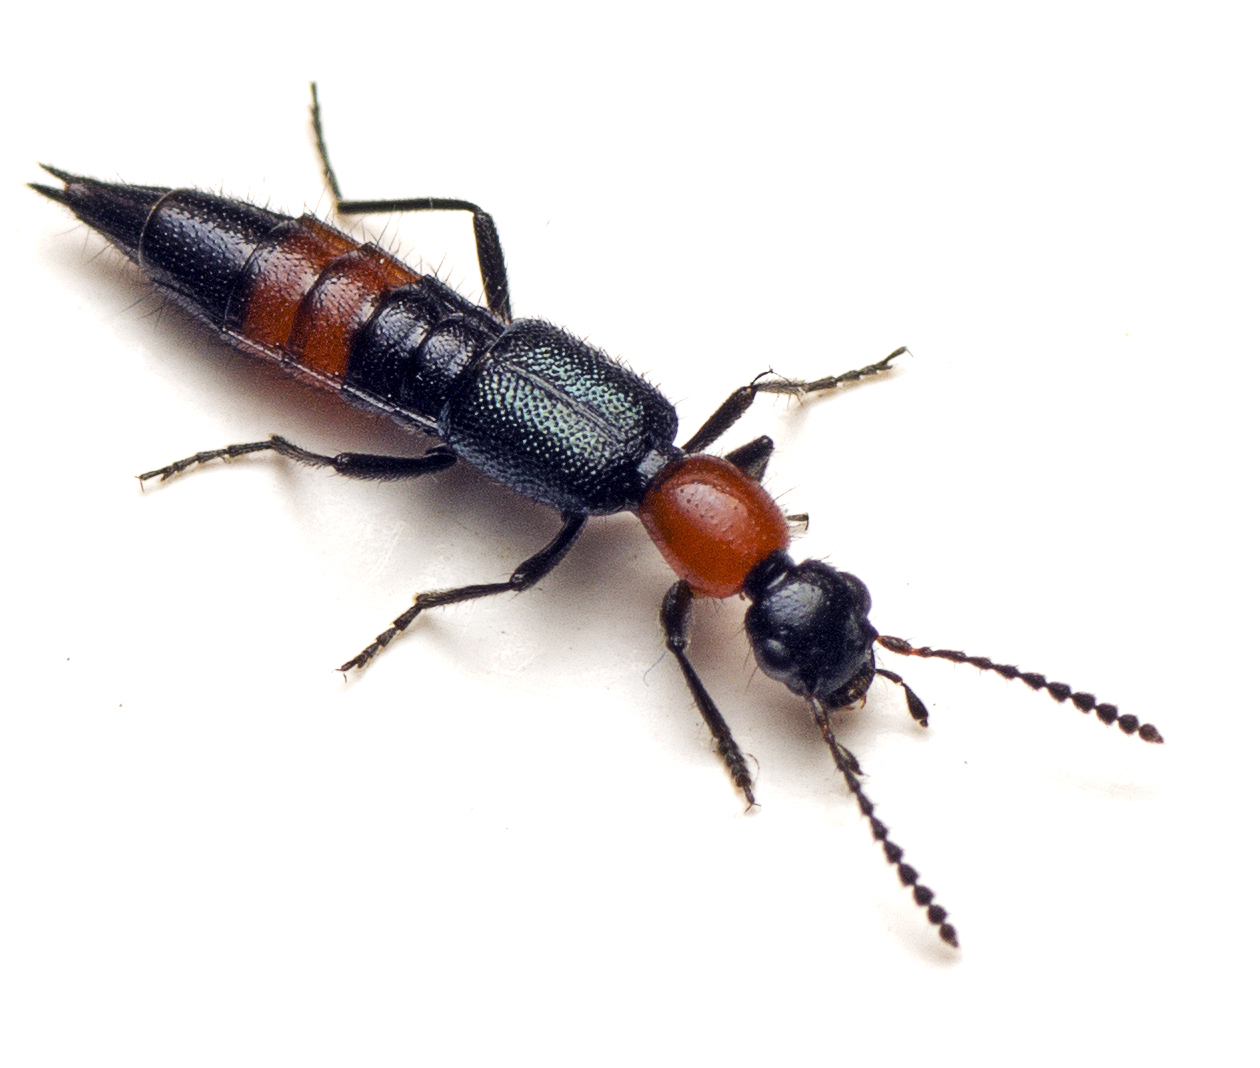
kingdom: Animalia
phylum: Arthropoda
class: Insecta
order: Coleoptera
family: Staphylinidae
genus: Paederus
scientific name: Paederus cruenticollis
